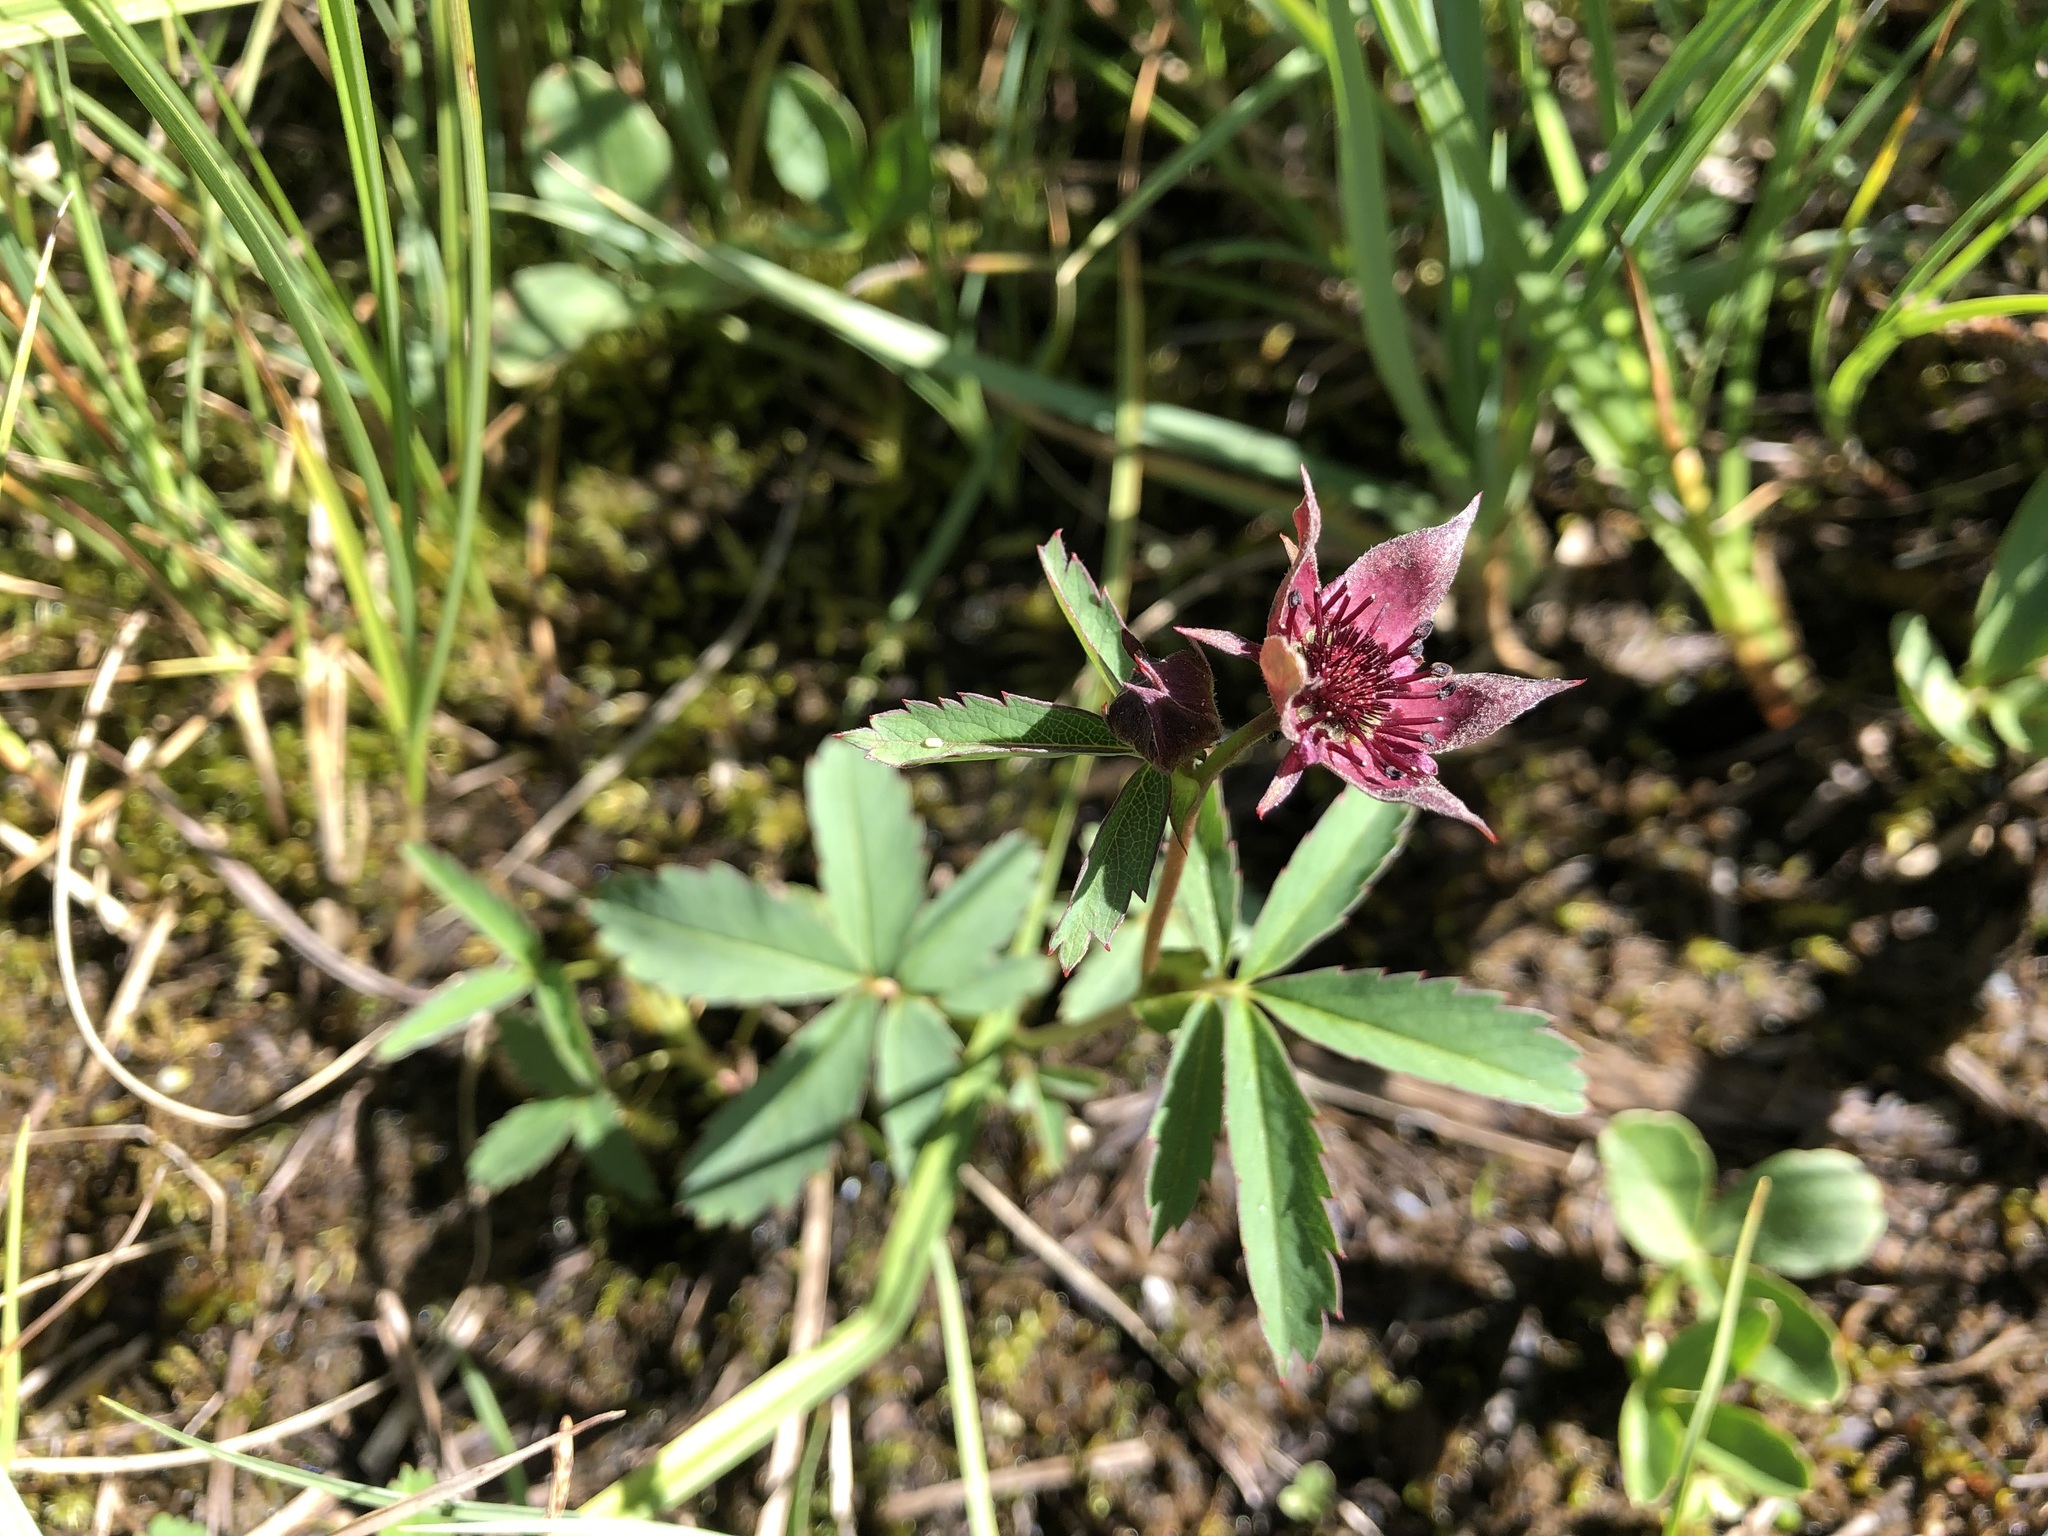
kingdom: Plantae
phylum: Tracheophyta
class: Magnoliopsida
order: Rosales
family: Rosaceae
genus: Comarum
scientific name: Comarum palustre
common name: Marsh cinquefoil
